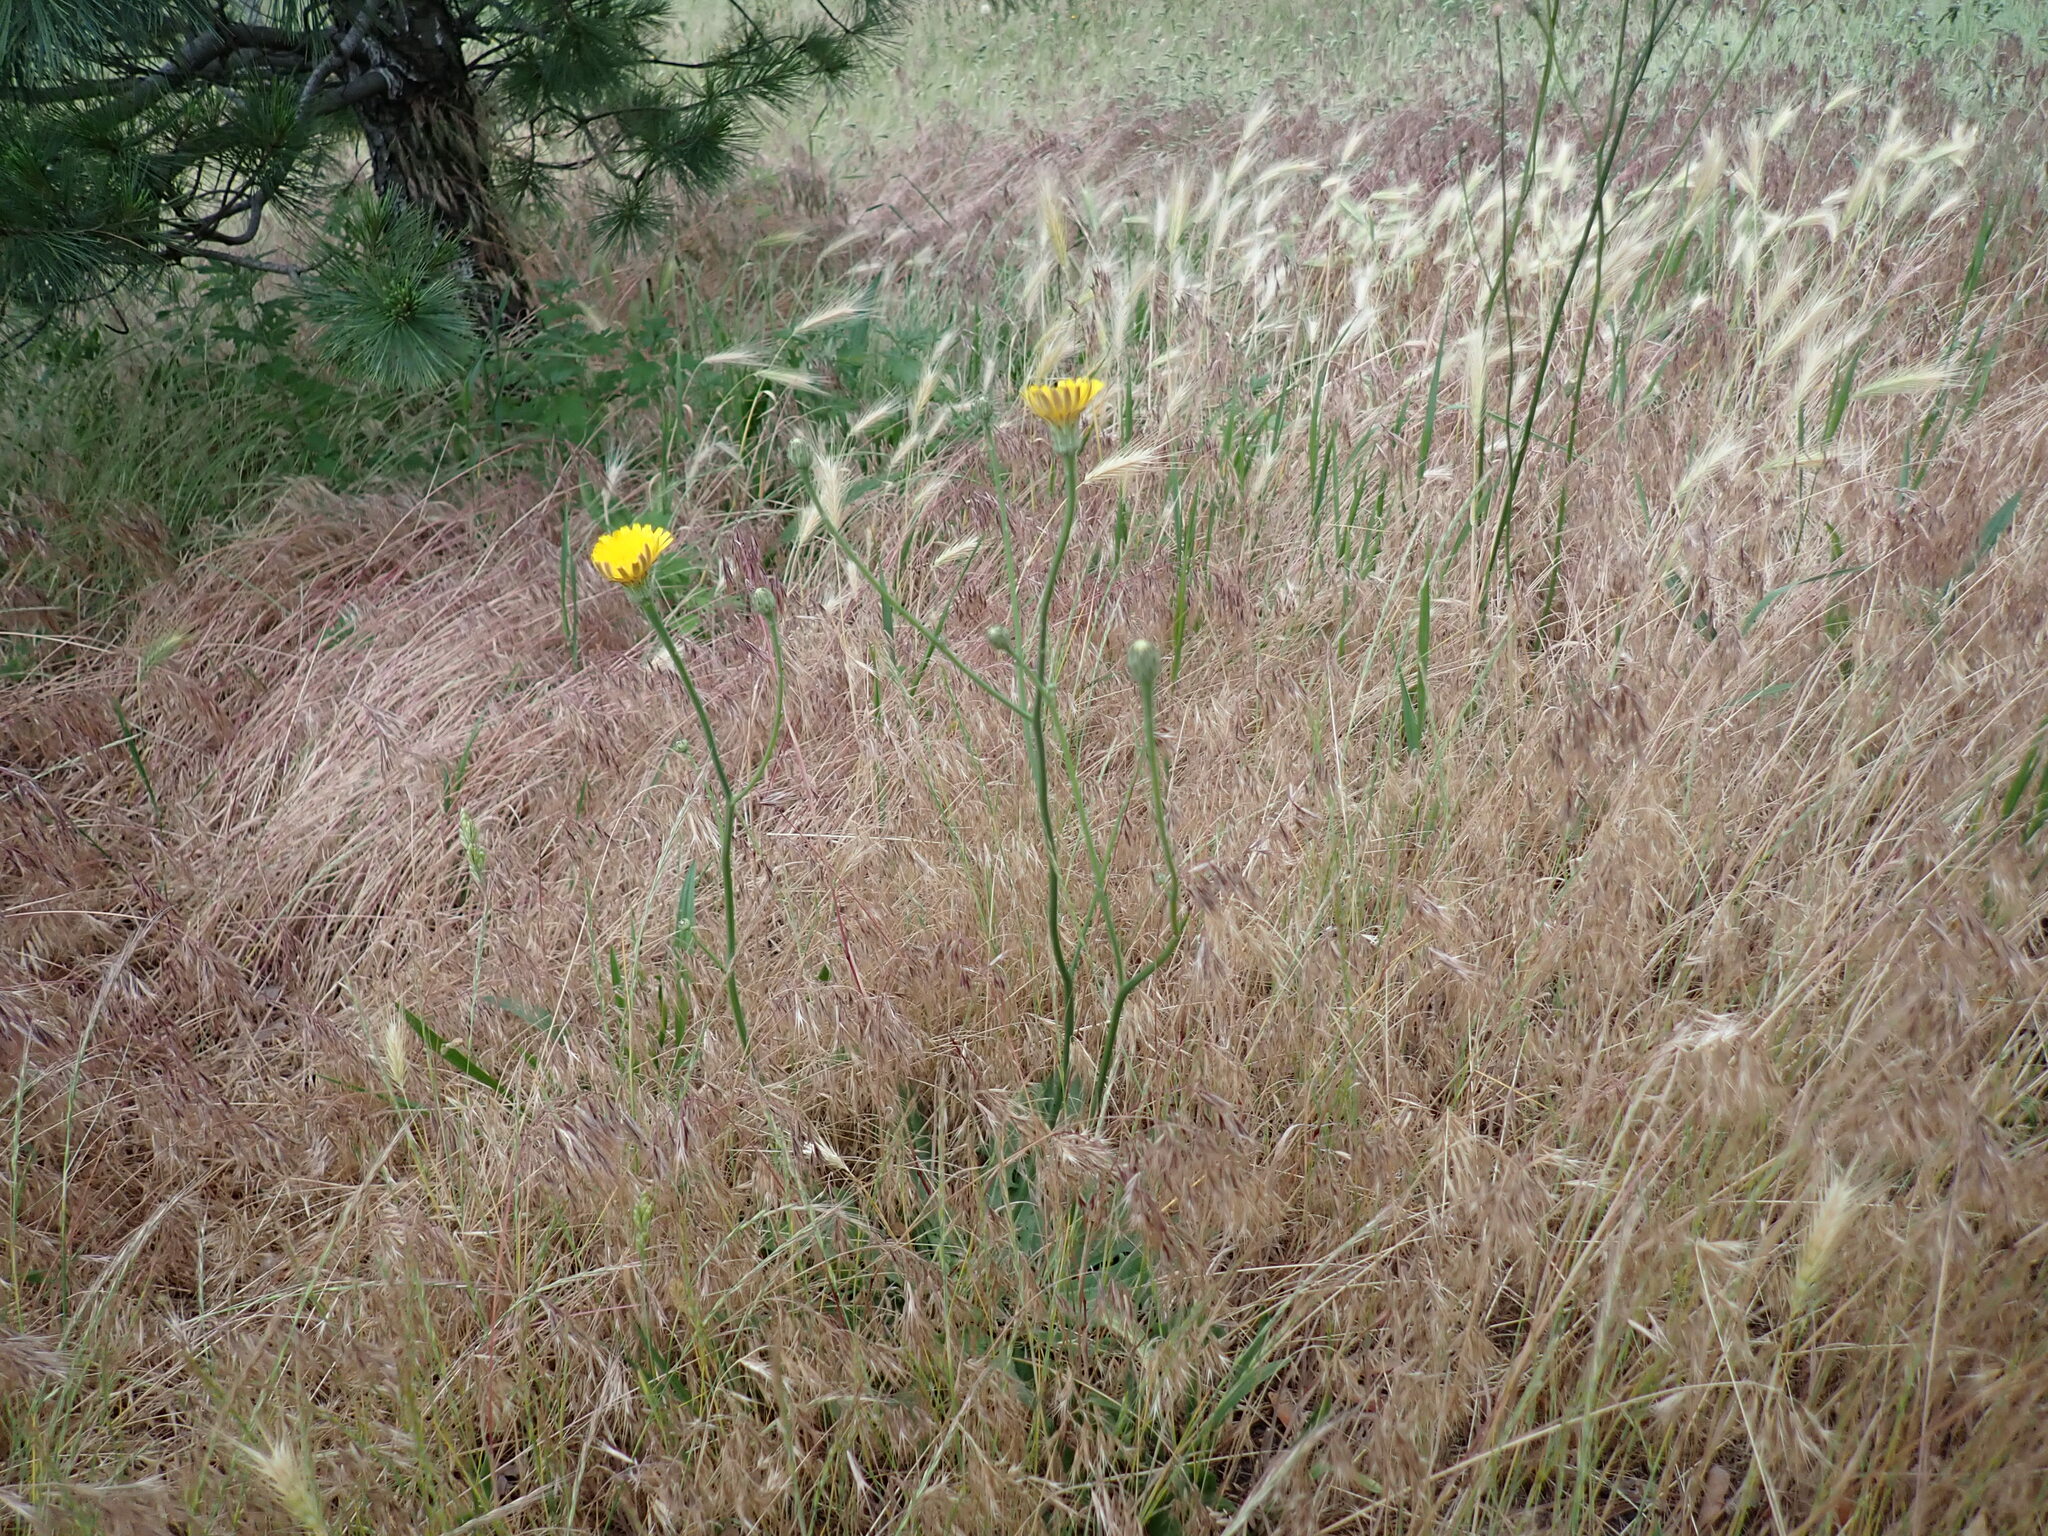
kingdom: Plantae
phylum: Tracheophyta
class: Magnoliopsida
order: Asterales
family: Asteraceae
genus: Hypochaeris
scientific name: Hypochaeris radicata
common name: Flatweed
